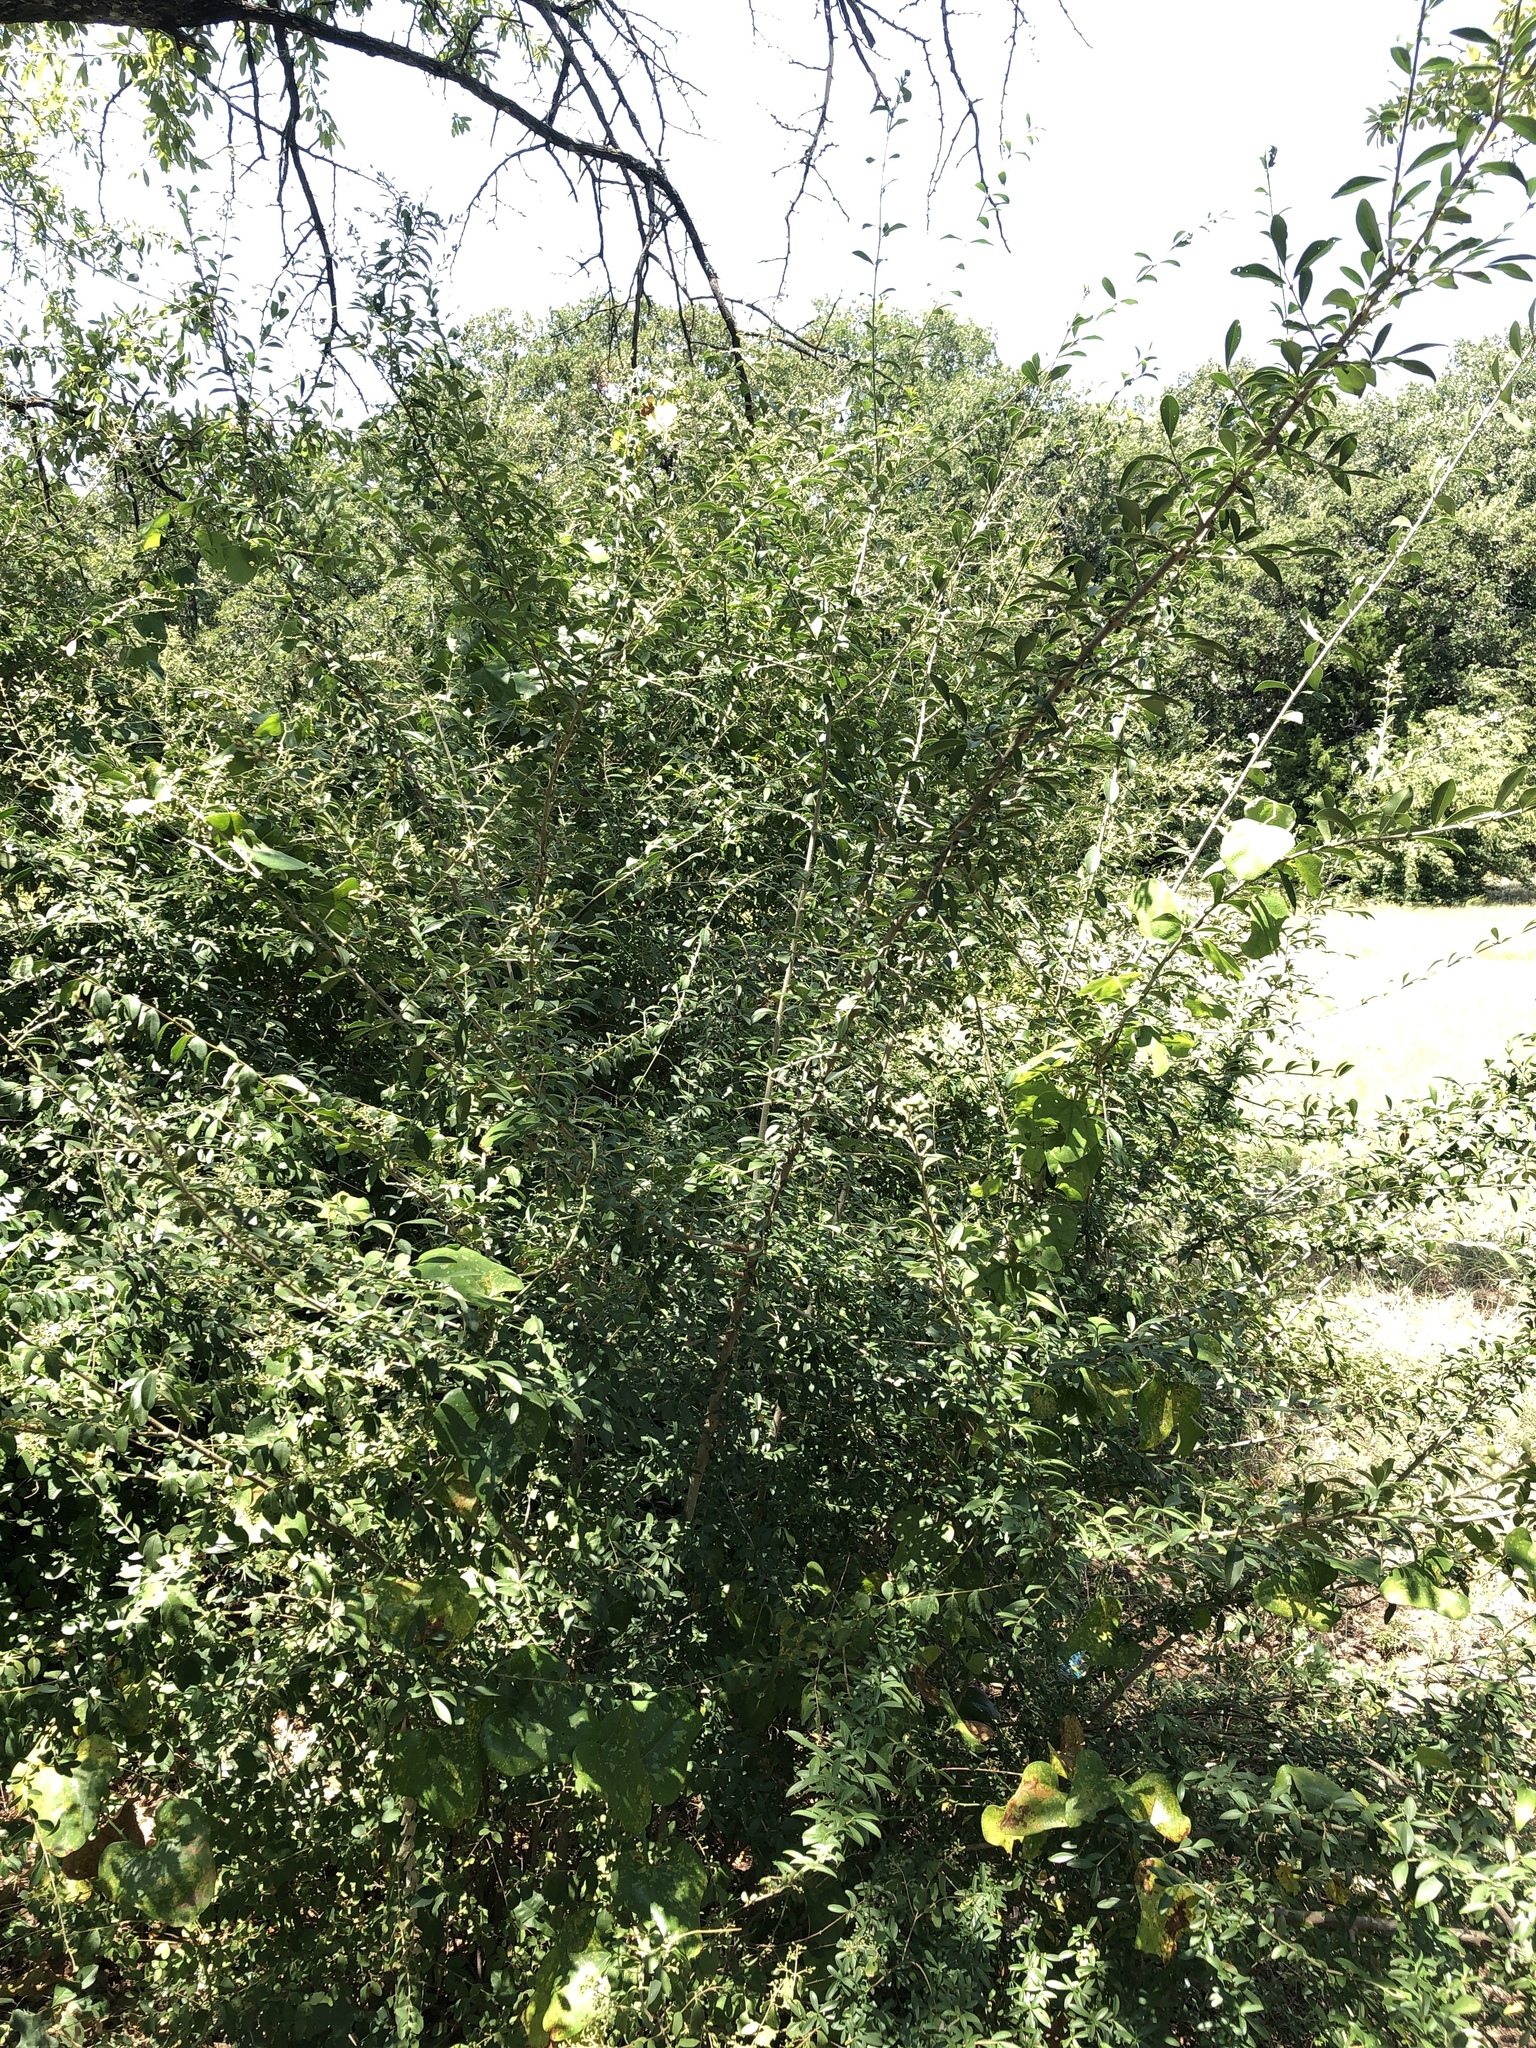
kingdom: Plantae
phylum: Tracheophyta
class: Magnoliopsida
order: Lamiales
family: Oleaceae
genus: Ligustrum
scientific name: Ligustrum quihoui
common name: Waxyleaf privet
